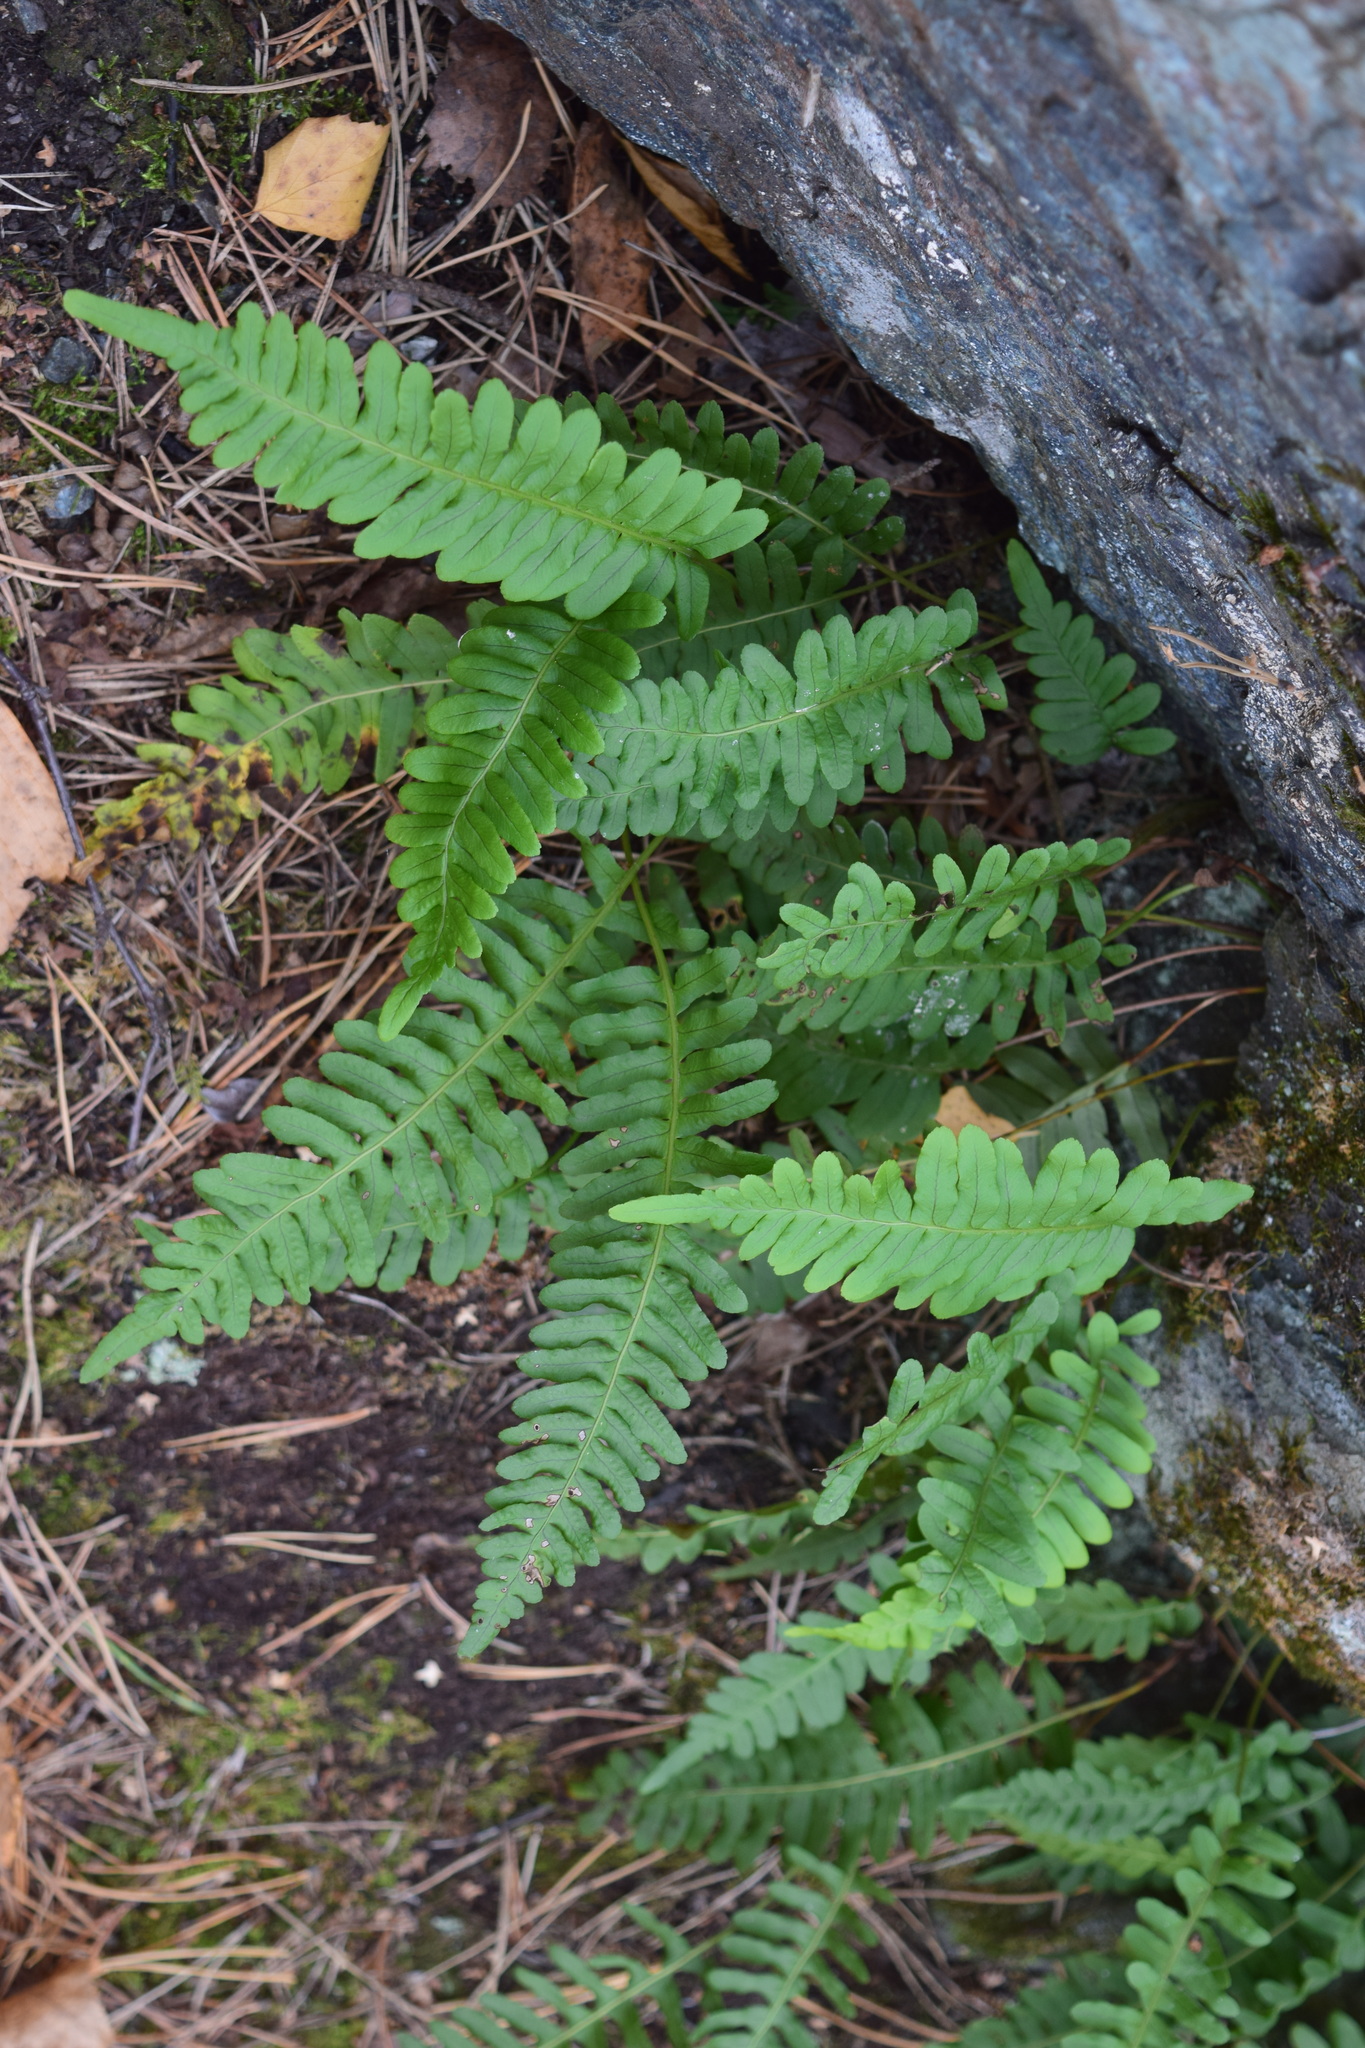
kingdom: Plantae
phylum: Tracheophyta
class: Polypodiopsida
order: Polypodiales
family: Polypodiaceae
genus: Polypodium
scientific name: Polypodium vulgare
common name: Common polypody
